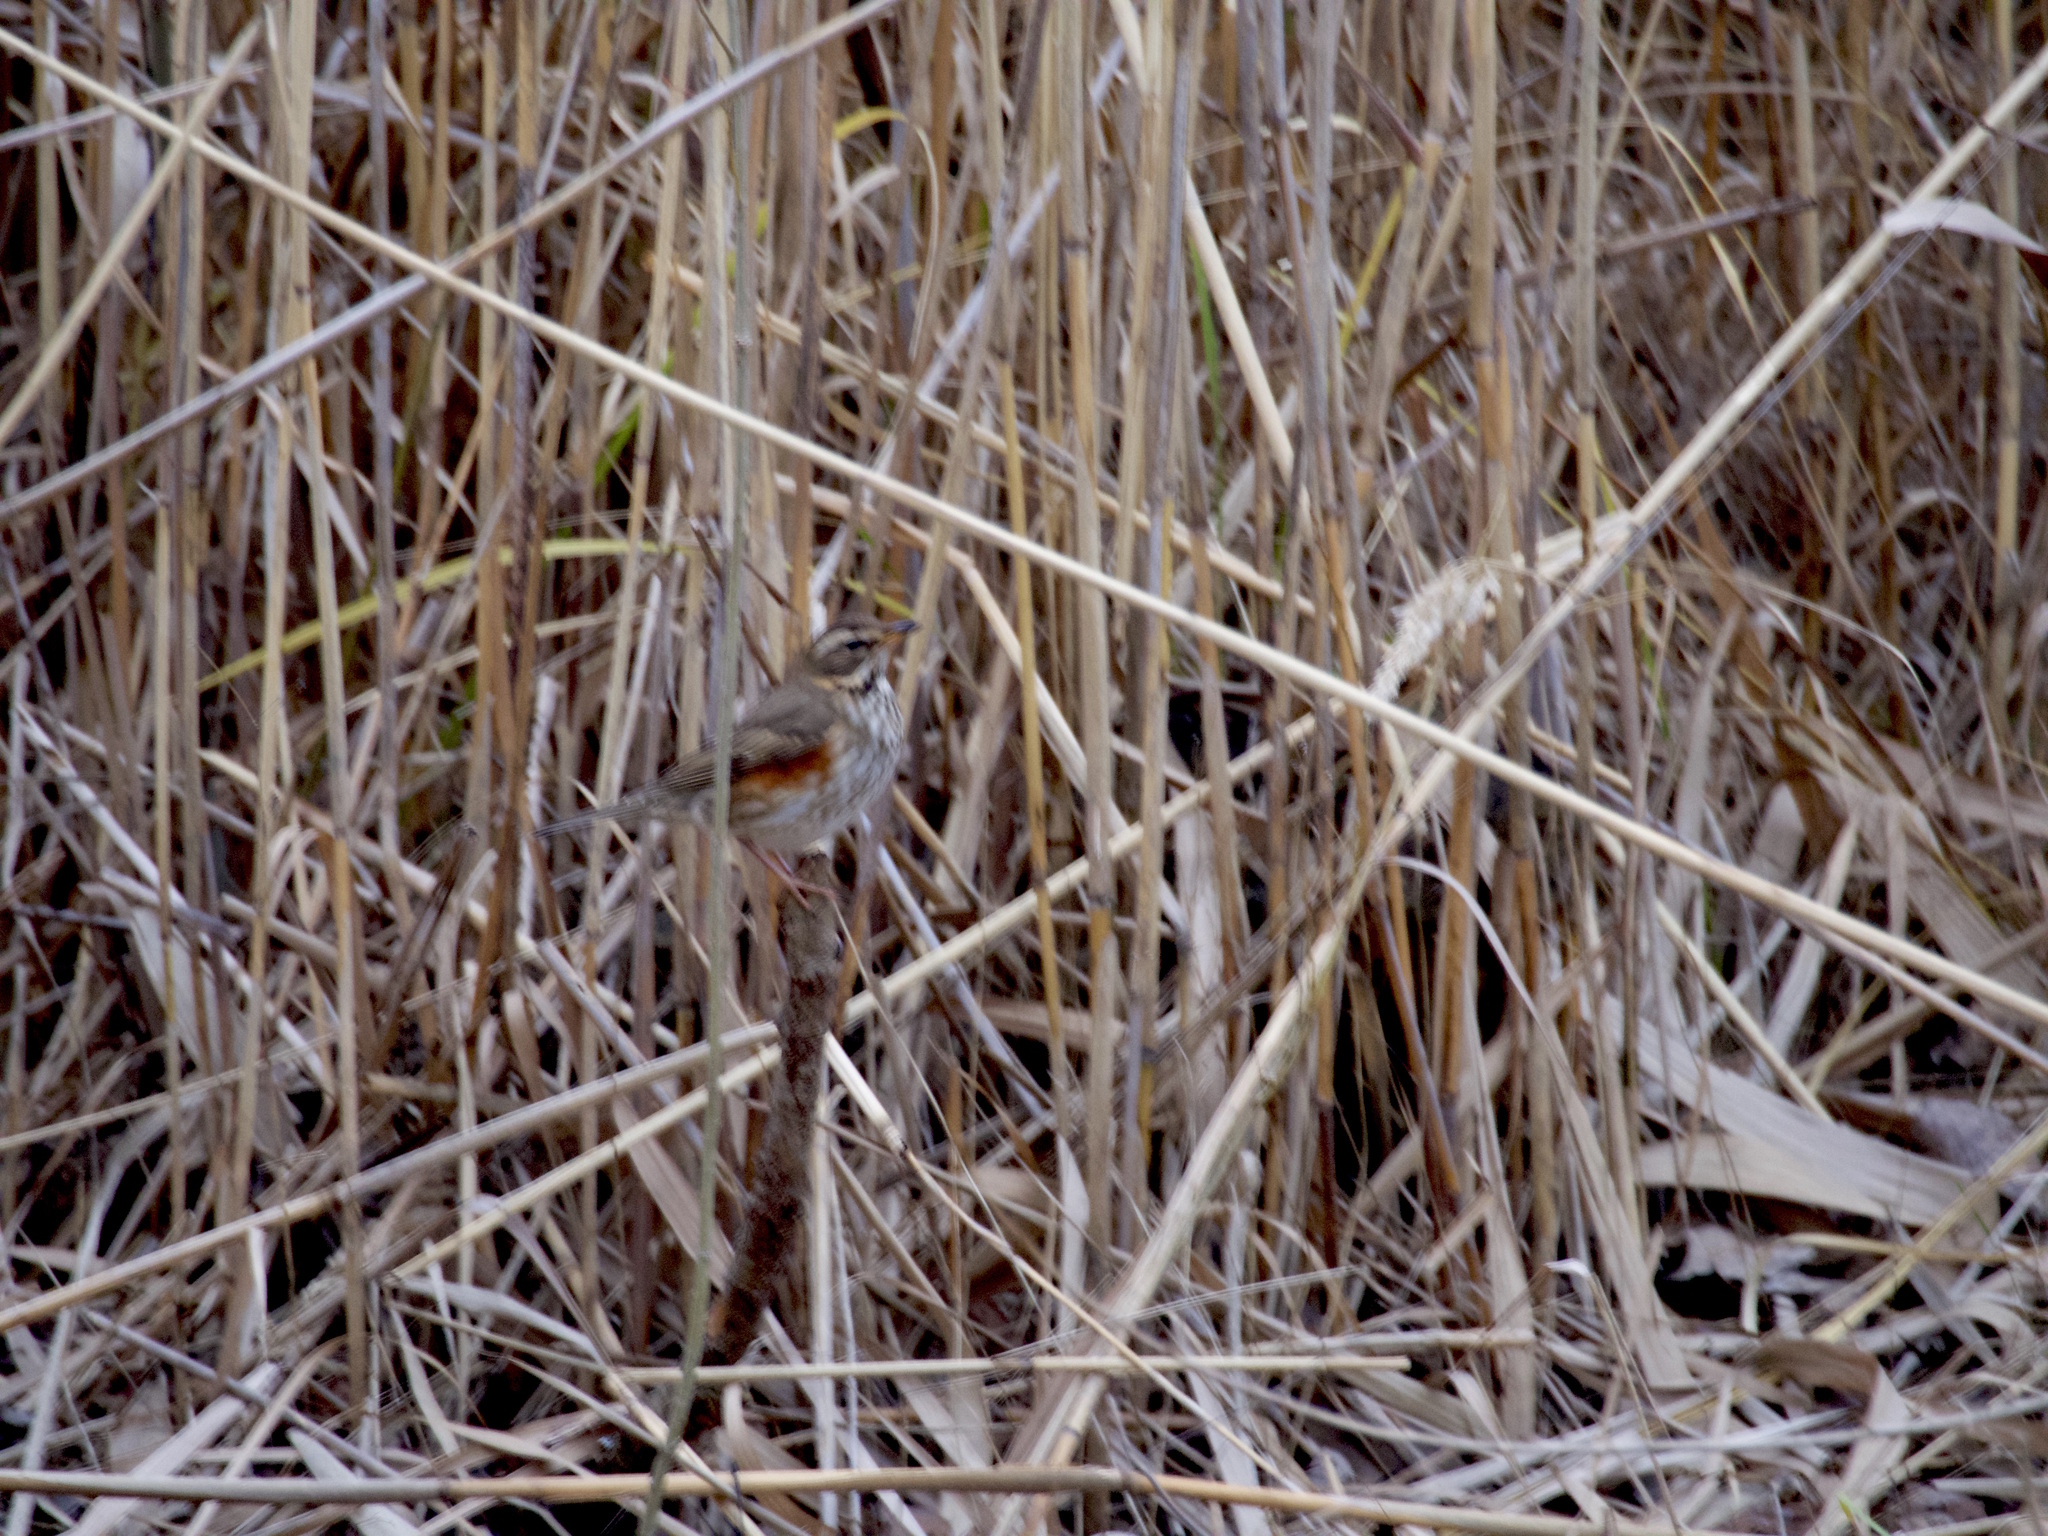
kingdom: Animalia
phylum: Chordata
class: Aves
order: Passeriformes
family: Turdidae
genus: Turdus
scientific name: Turdus iliacus
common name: Redwing
